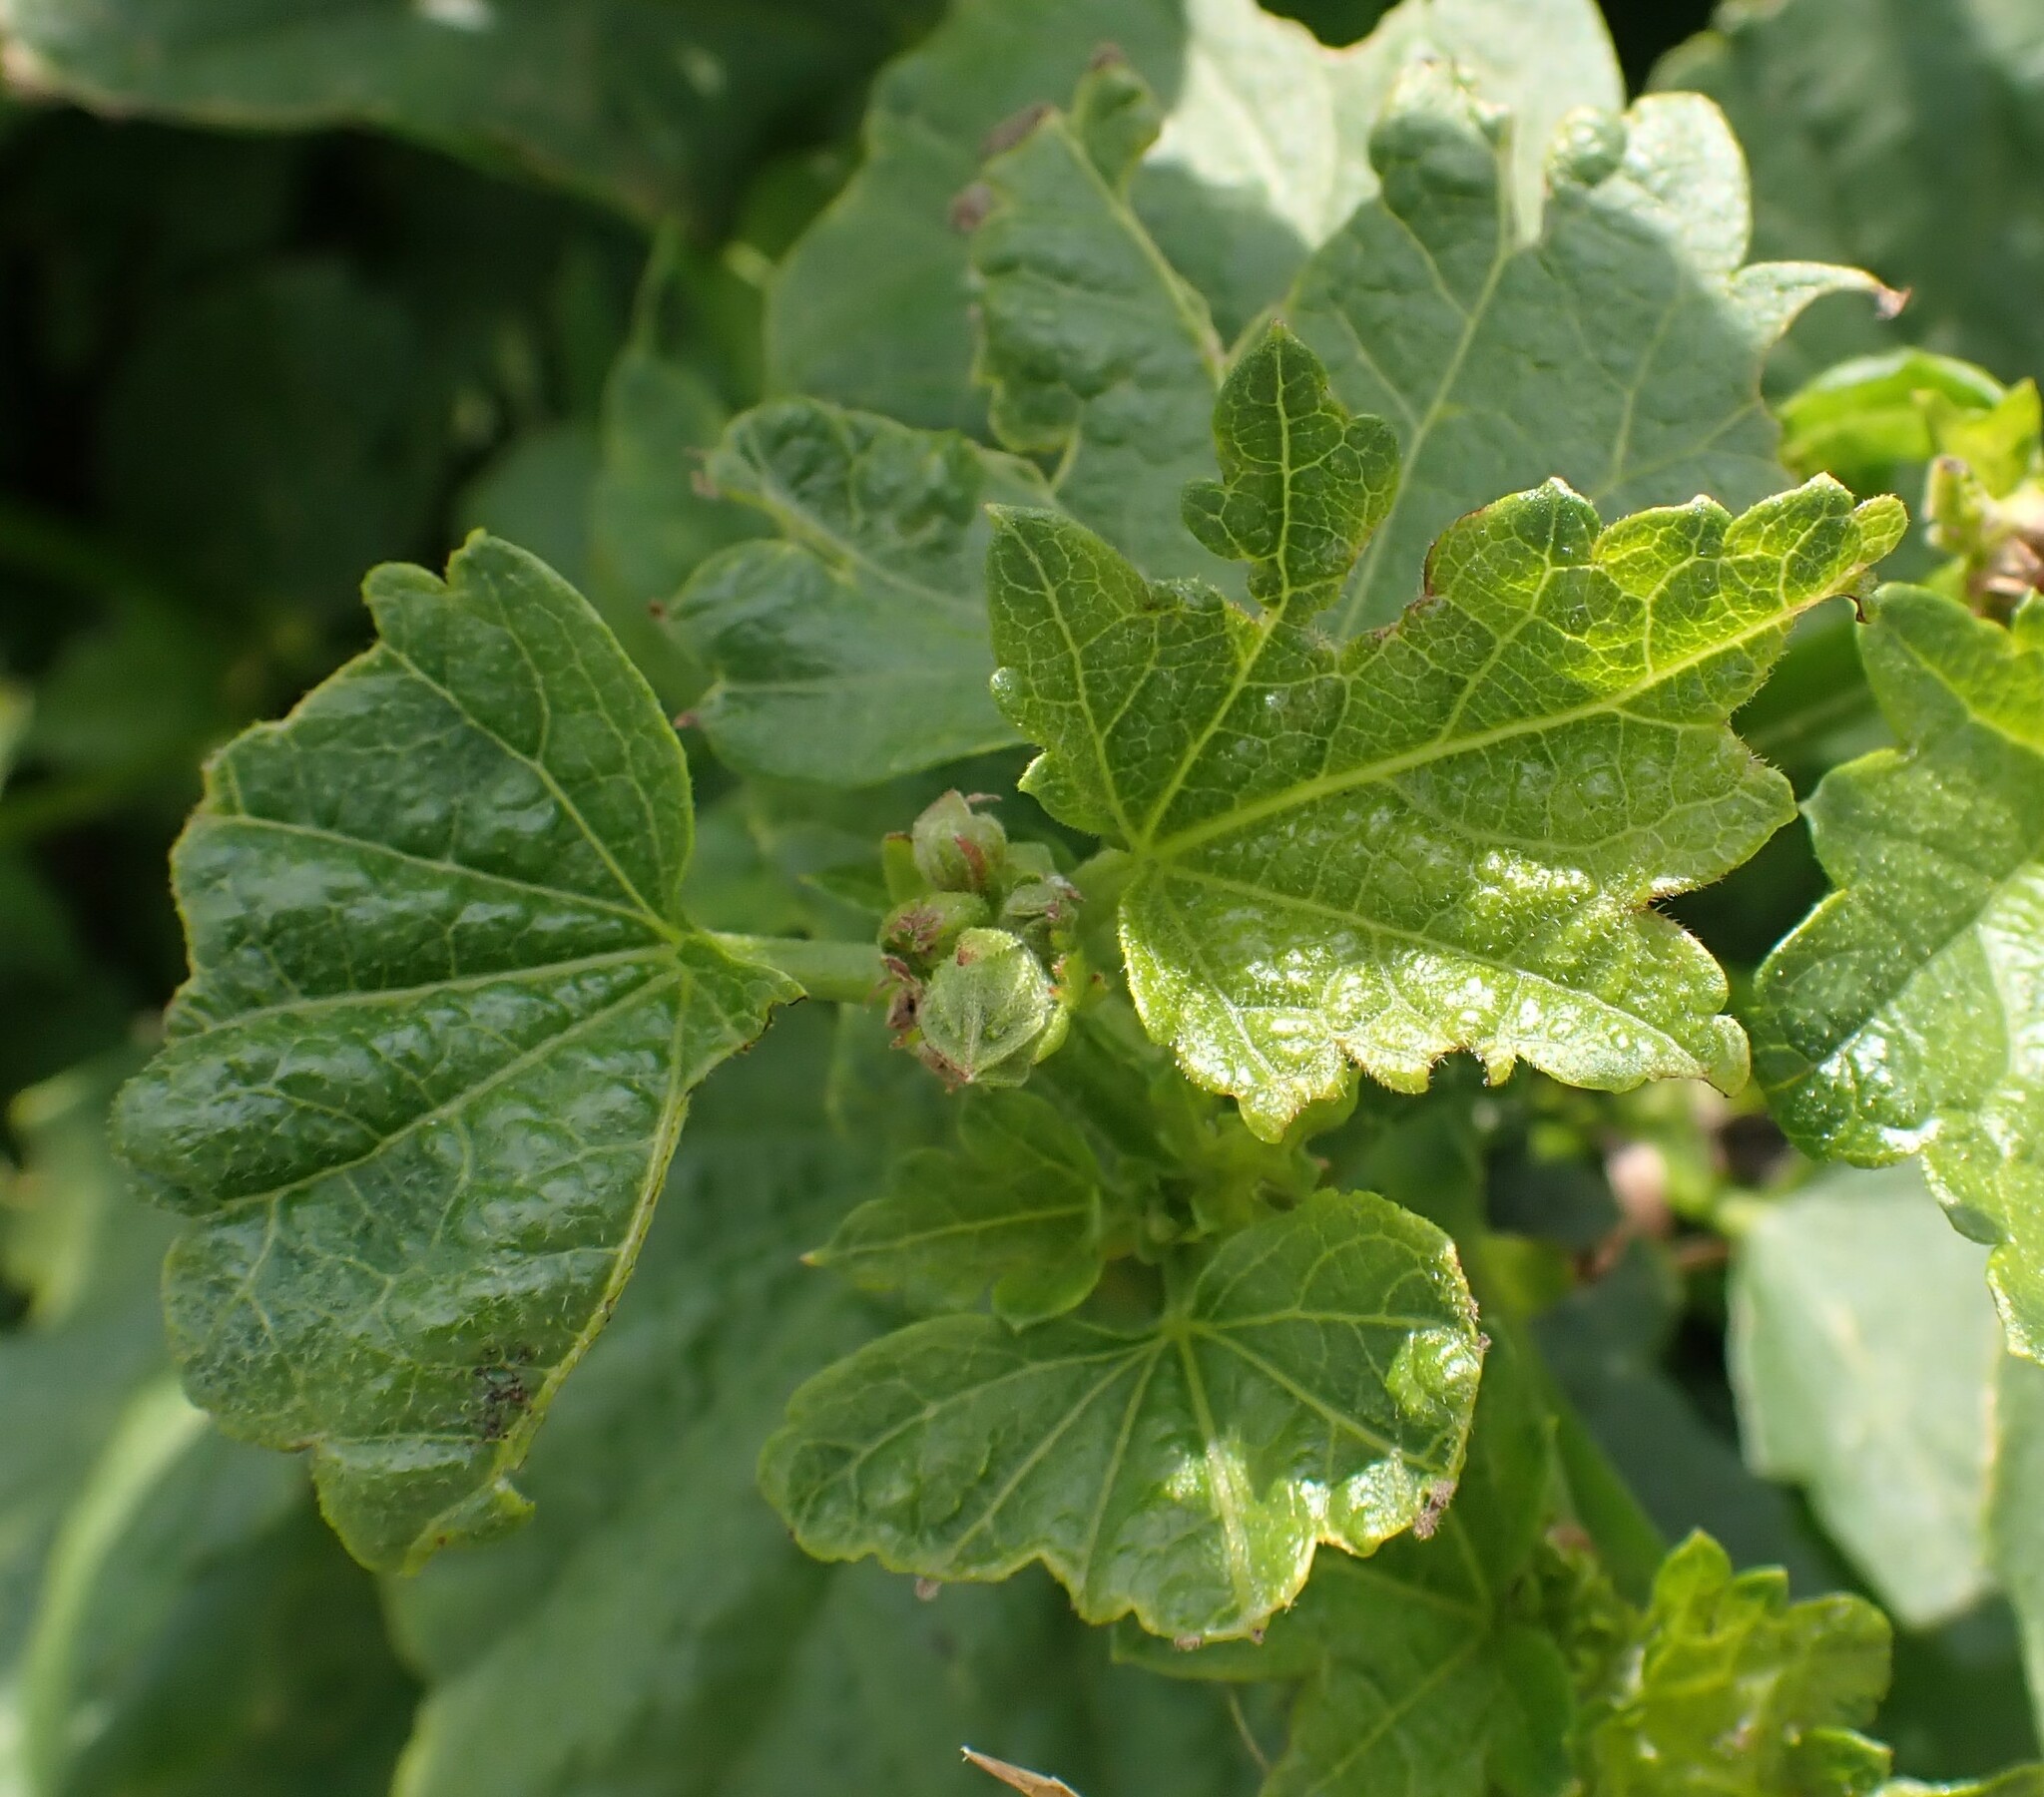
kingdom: Plantae
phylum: Tracheophyta
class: Magnoliopsida
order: Malvales
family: Malvaceae
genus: Iliamna
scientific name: Iliamna rivularis
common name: Wild hollyhock
